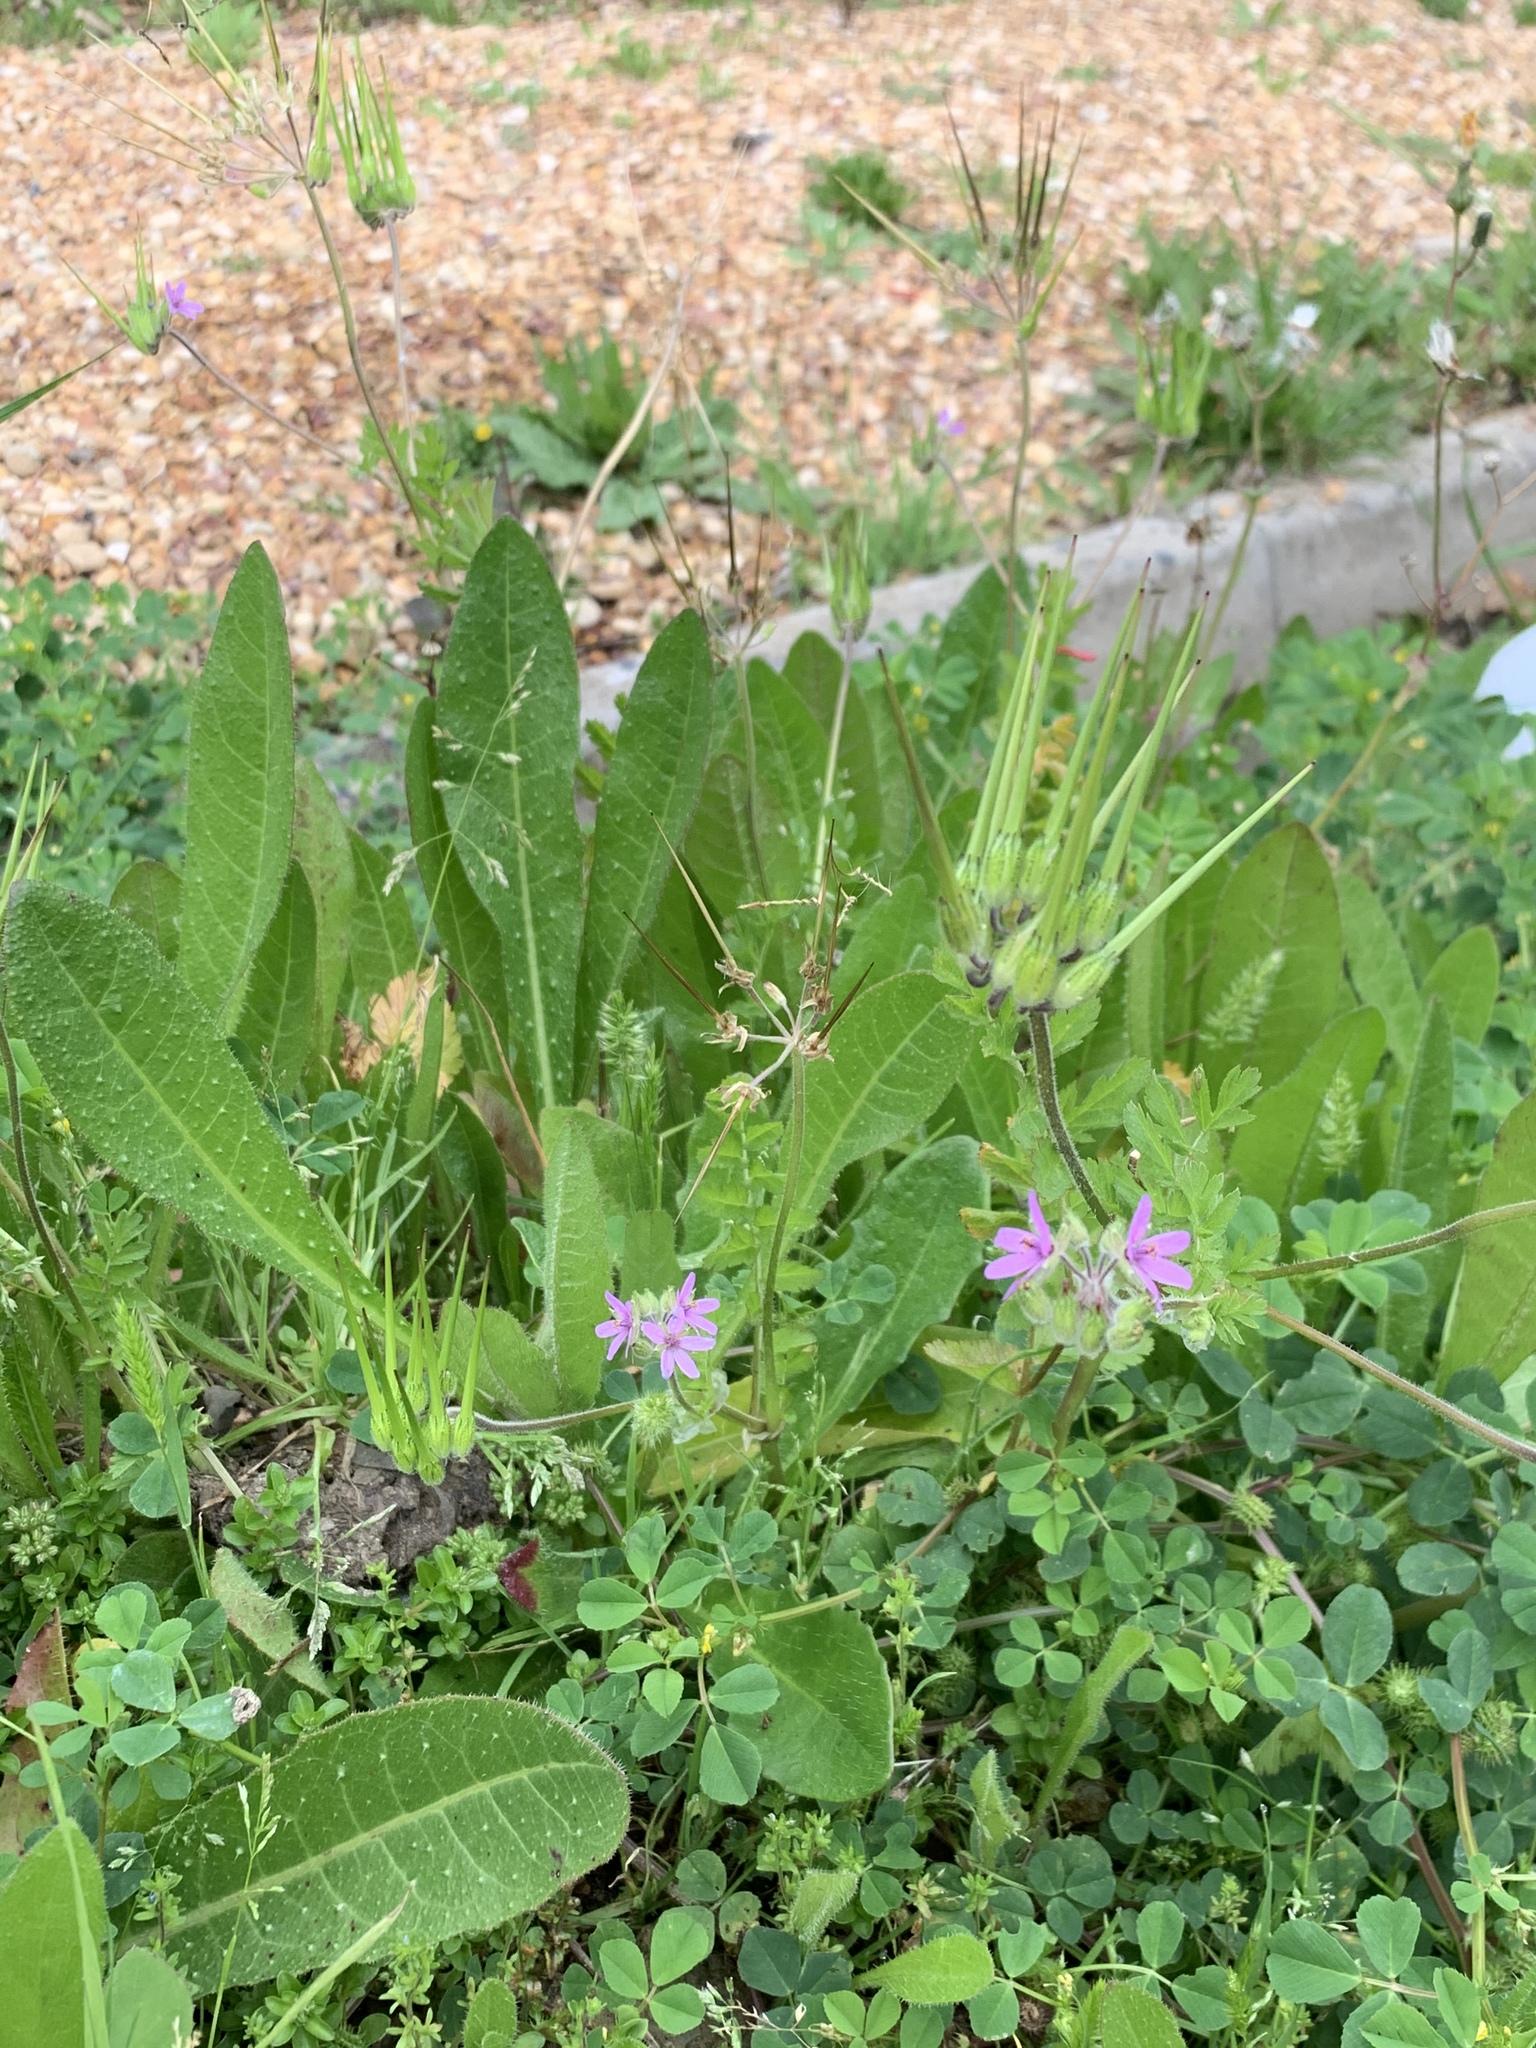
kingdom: Plantae
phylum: Tracheophyta
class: Magnoliopsida
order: Geraniales
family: Geraniaceae
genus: Erodium
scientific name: Erodium moschatum
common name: Musk stork's-bill
